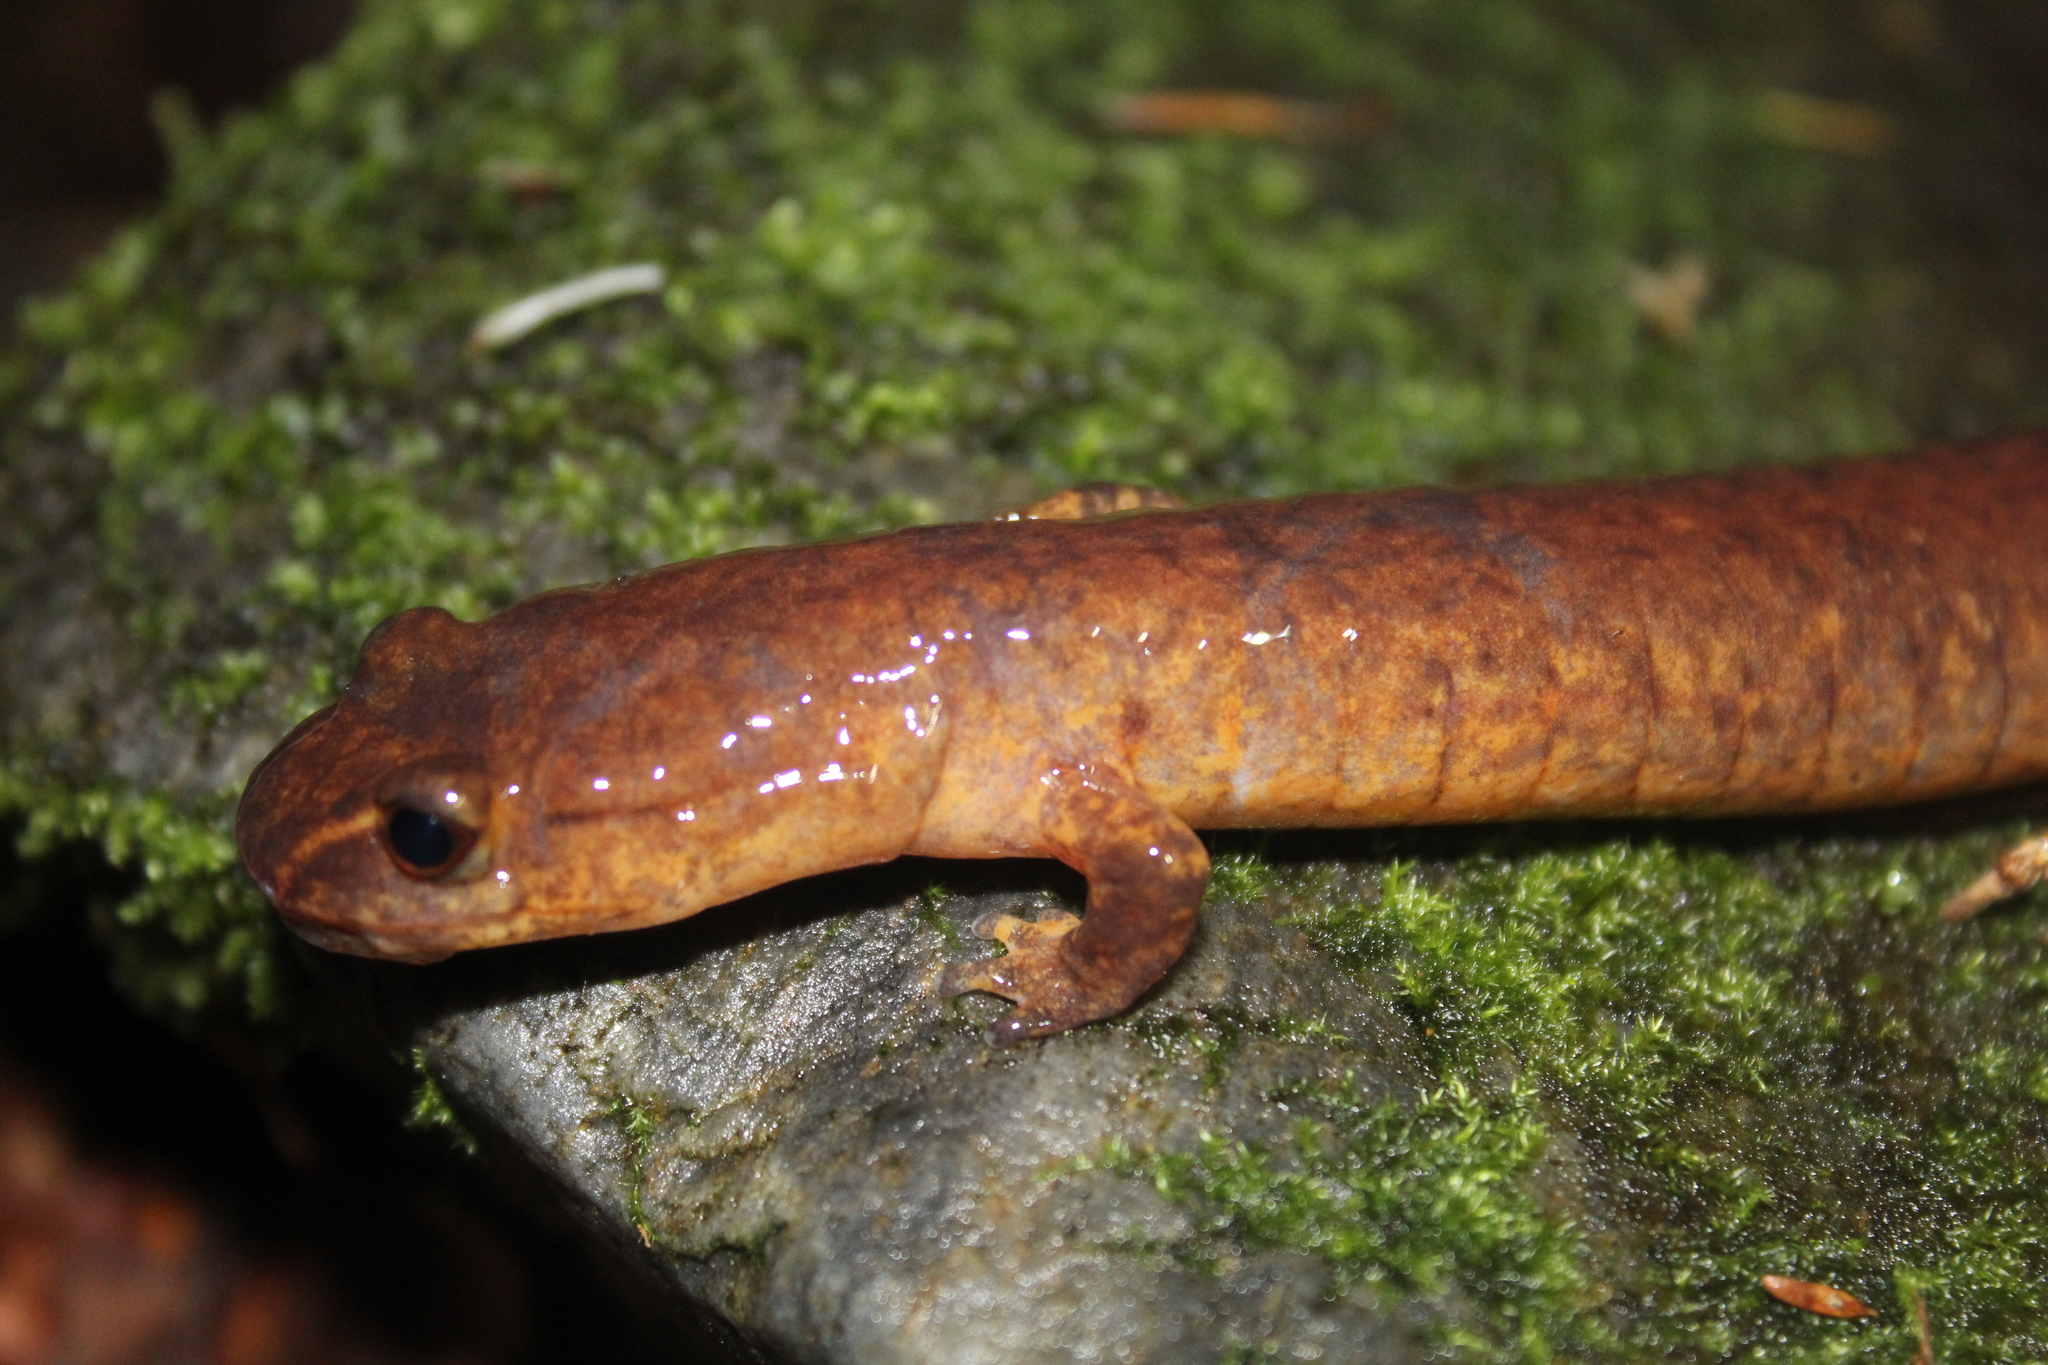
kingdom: Animalia
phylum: Chordata
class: Amphibia
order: Caudata
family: Plethodontidae
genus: Gyrinophilus
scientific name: Gyrinophilus porphyriticus
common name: Spring salamander
